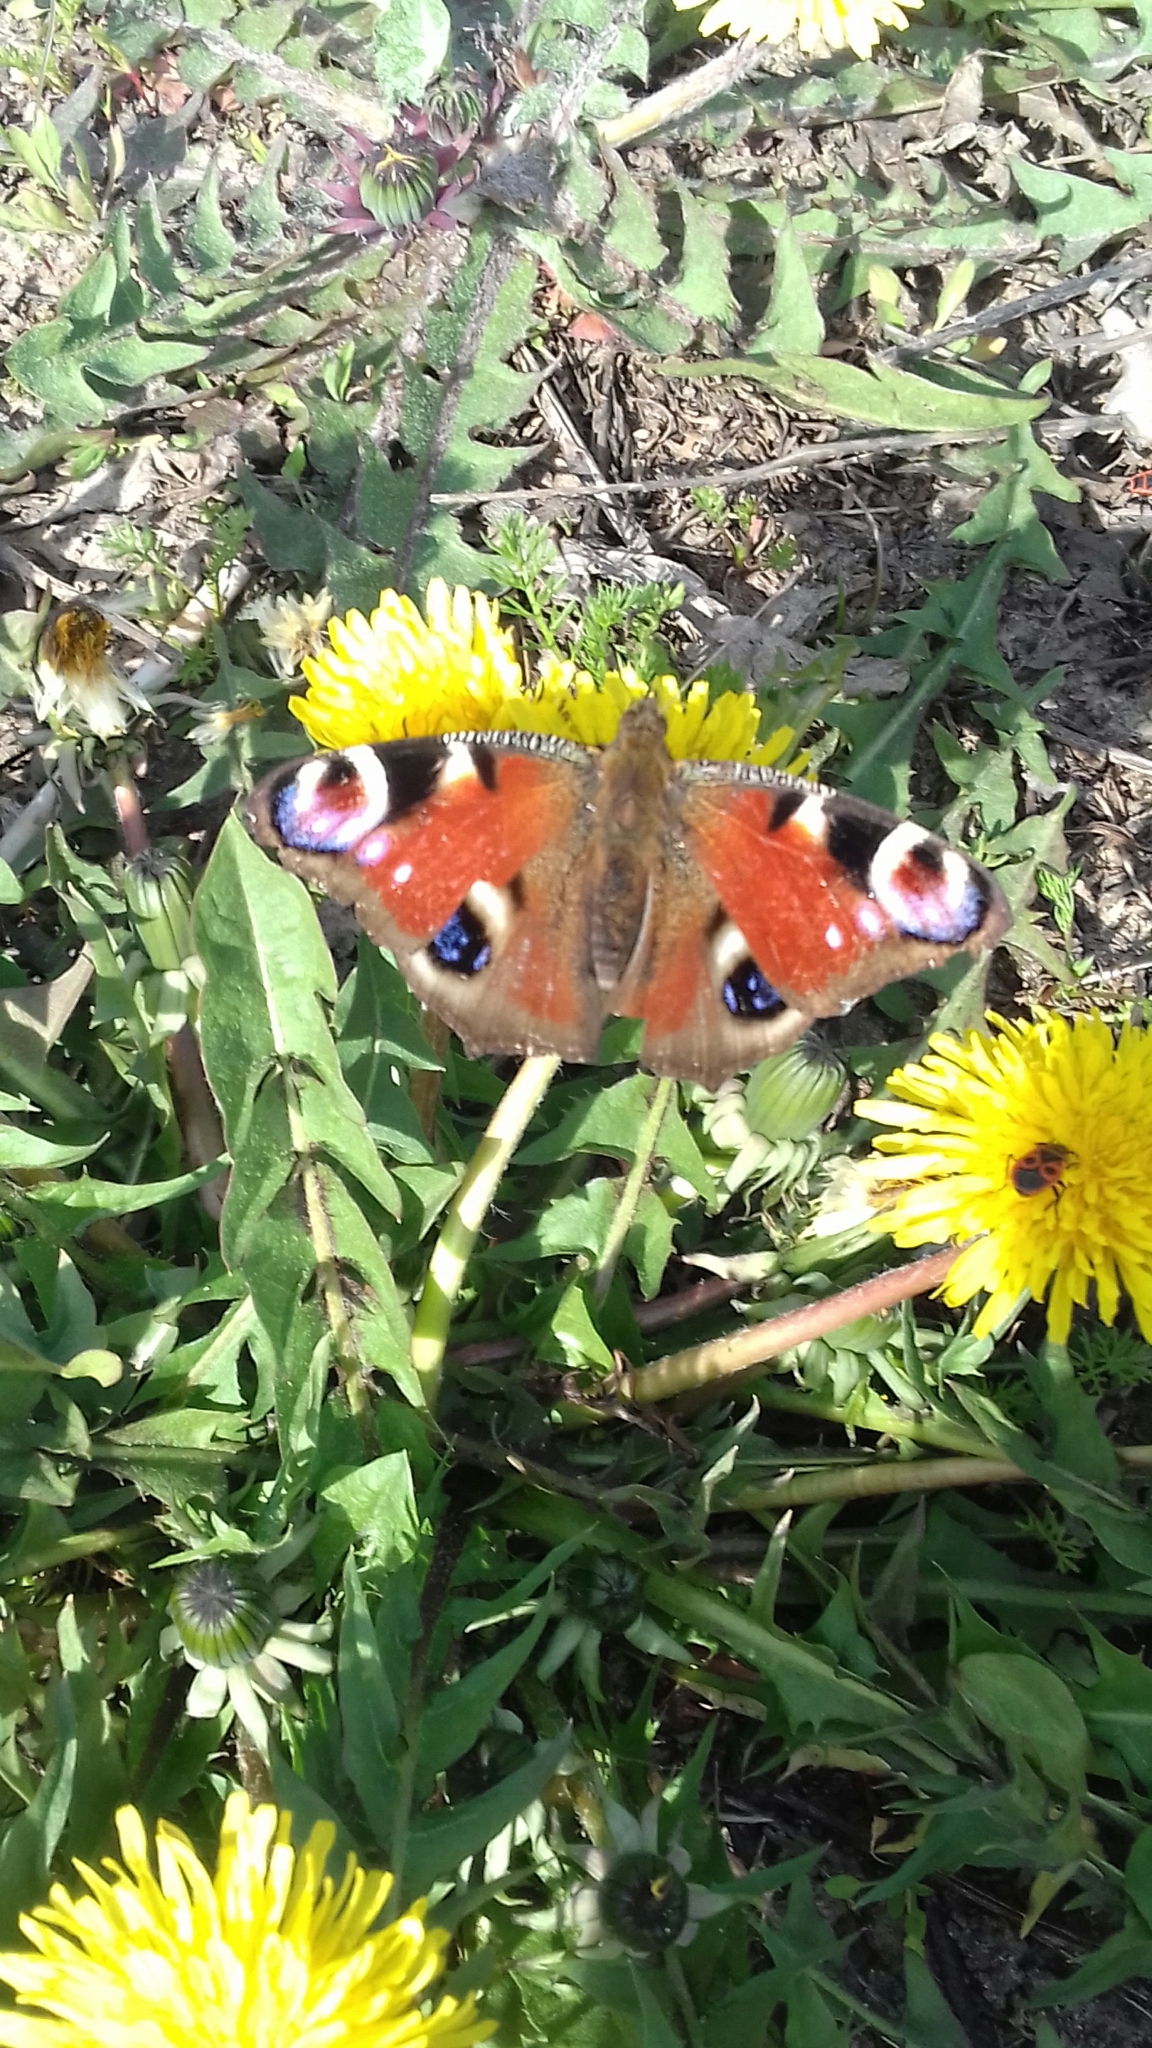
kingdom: Animalia
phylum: Arthropoda
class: Insecta
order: Lepidoptera
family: Nymphalidae
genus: Aglais
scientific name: Aglais io
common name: Peacock
